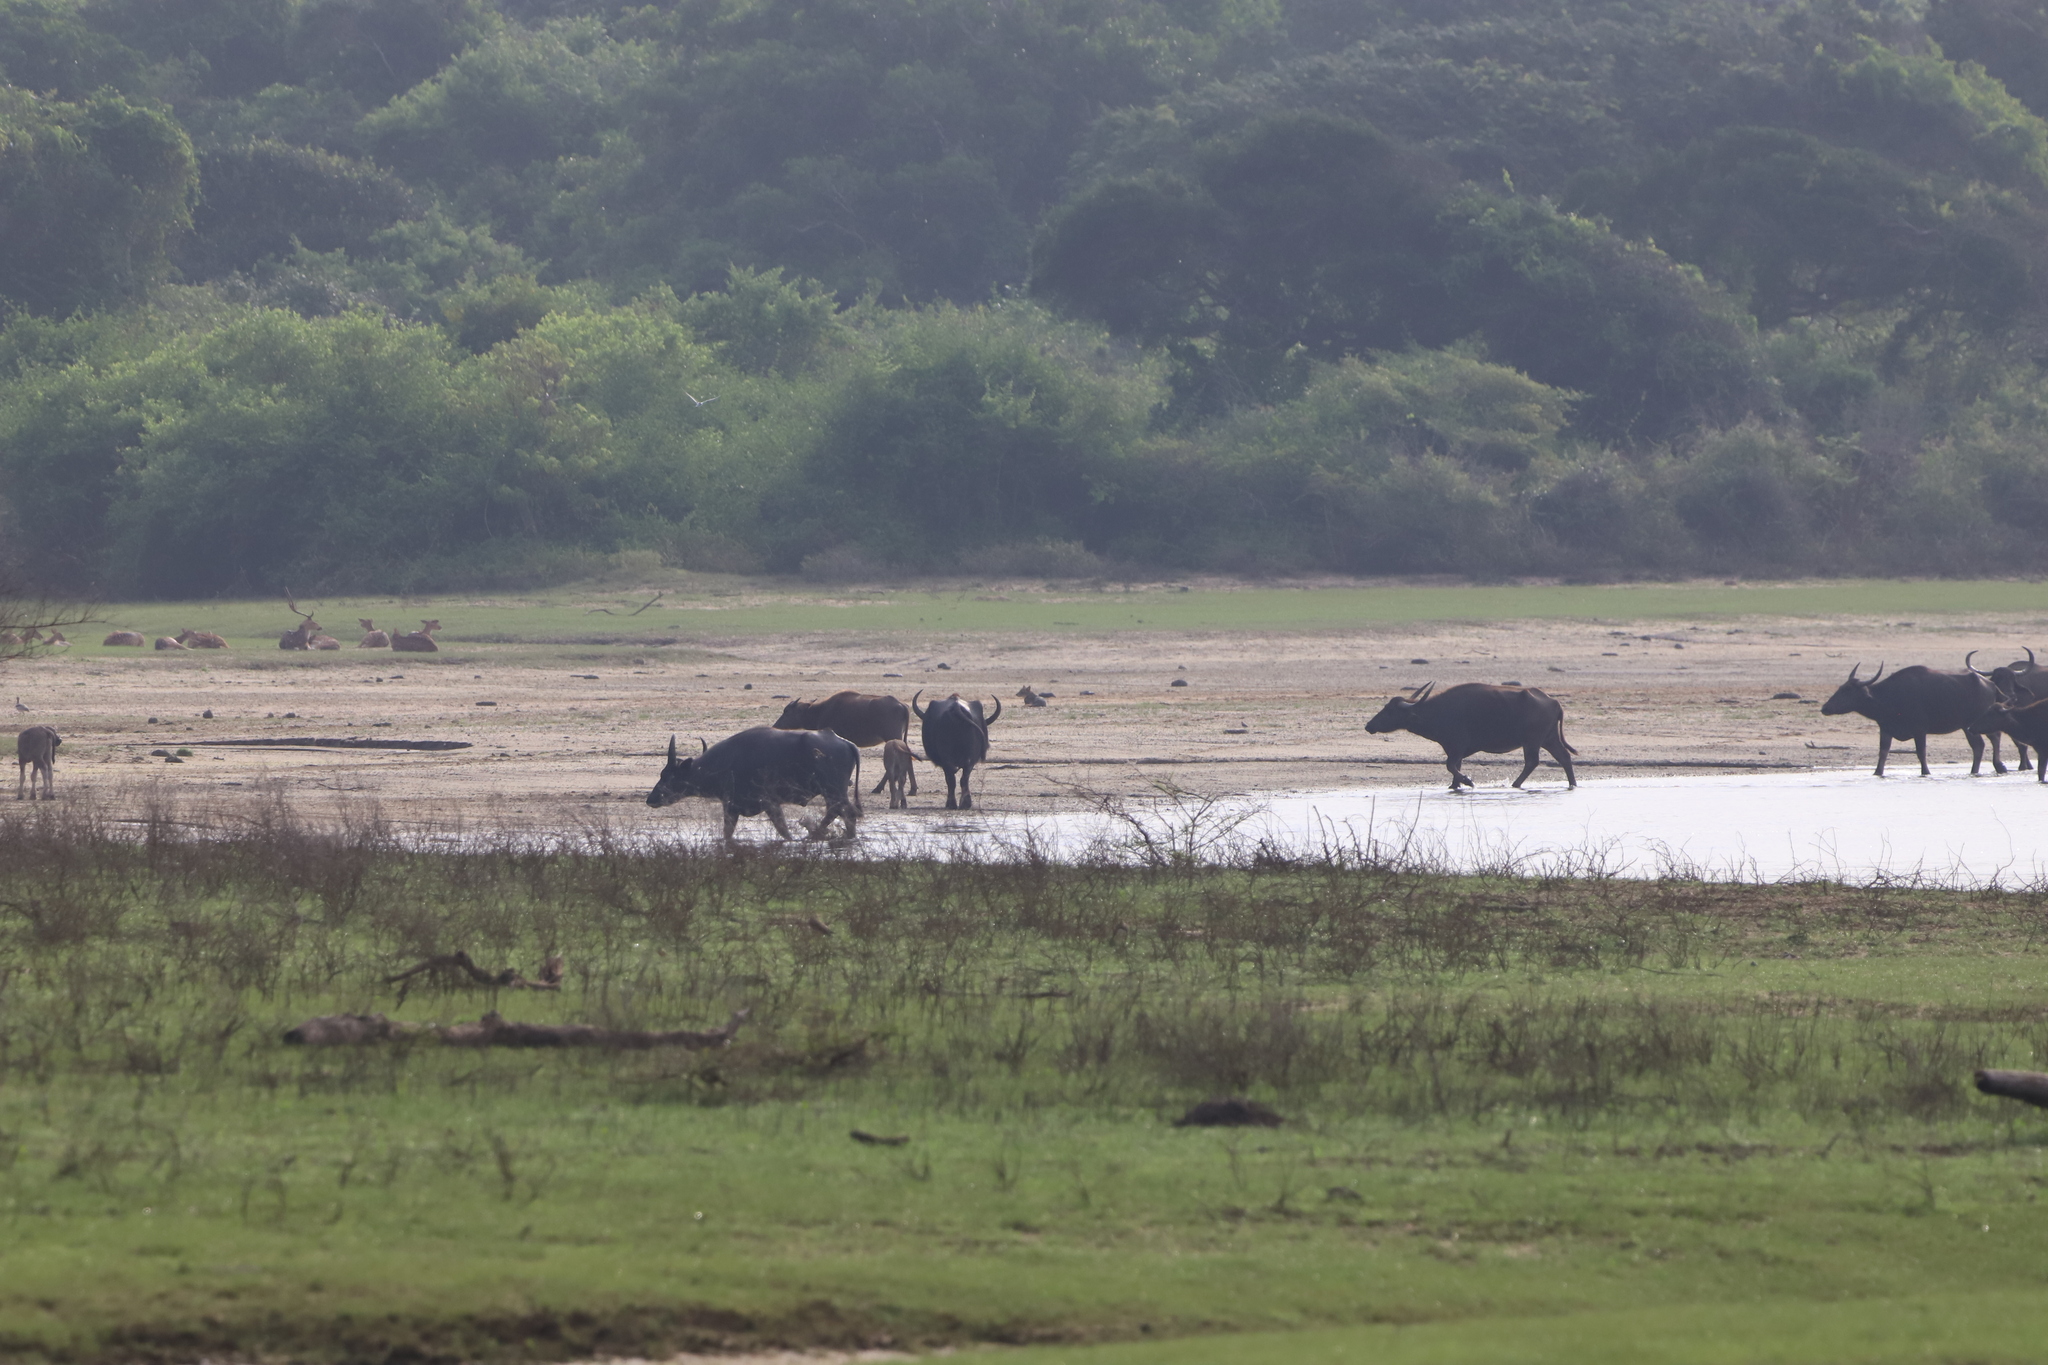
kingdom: Animalia
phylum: Chordata
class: Mammalia
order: Carnivora
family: Canidae
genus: Canis
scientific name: Canis aureus
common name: Golden jackal
